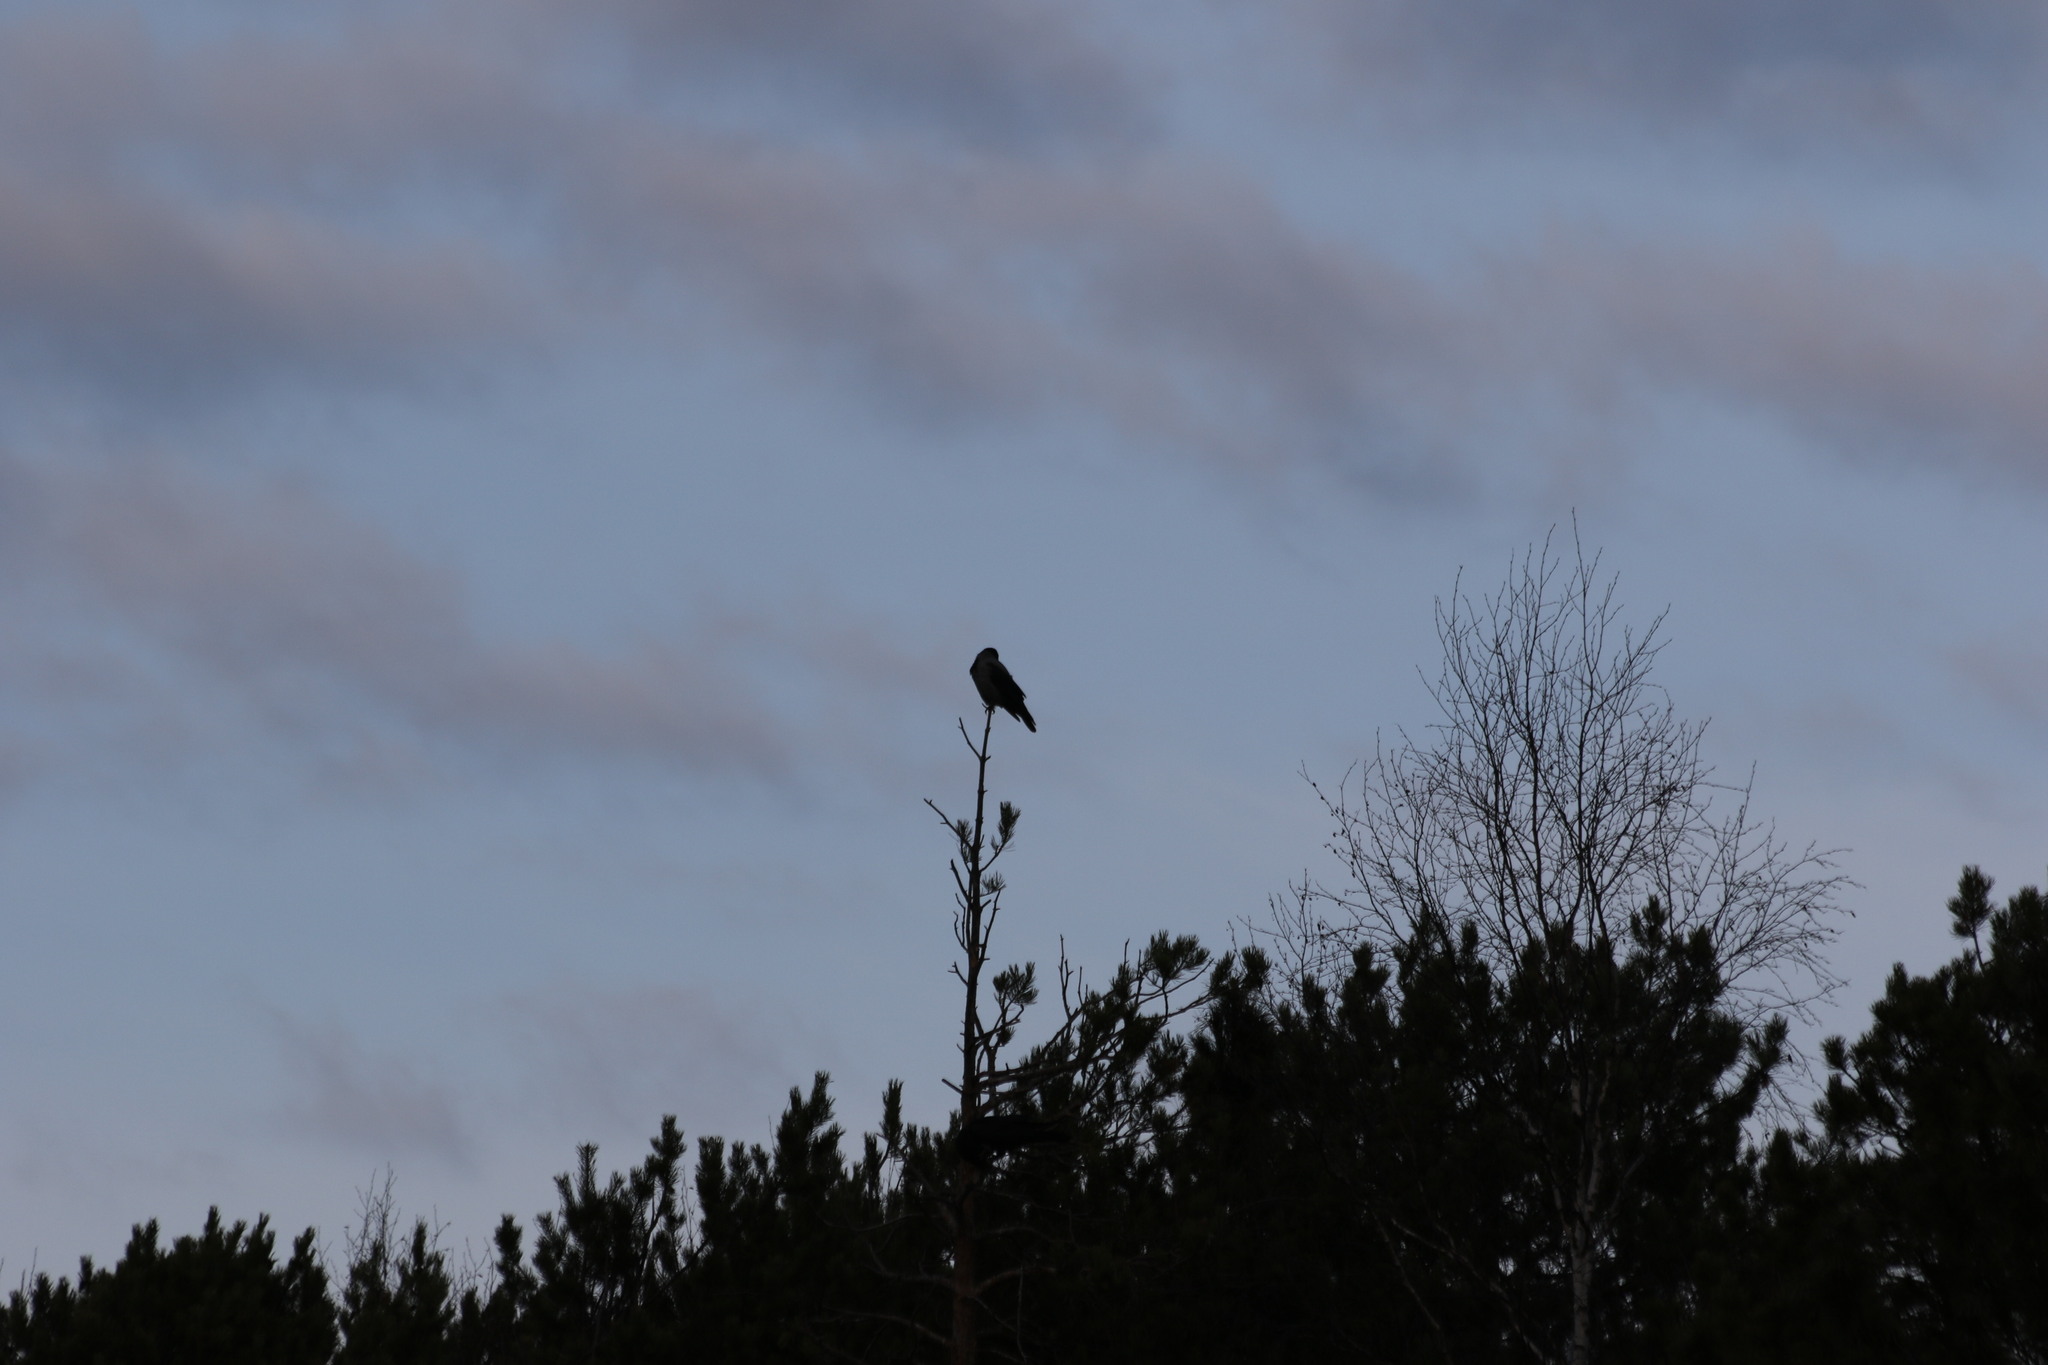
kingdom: Animalia
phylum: Chordata
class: Aves
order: Passeriformes
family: Corvidae
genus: Corvus
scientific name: Corvus cornix
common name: Hooded crow
